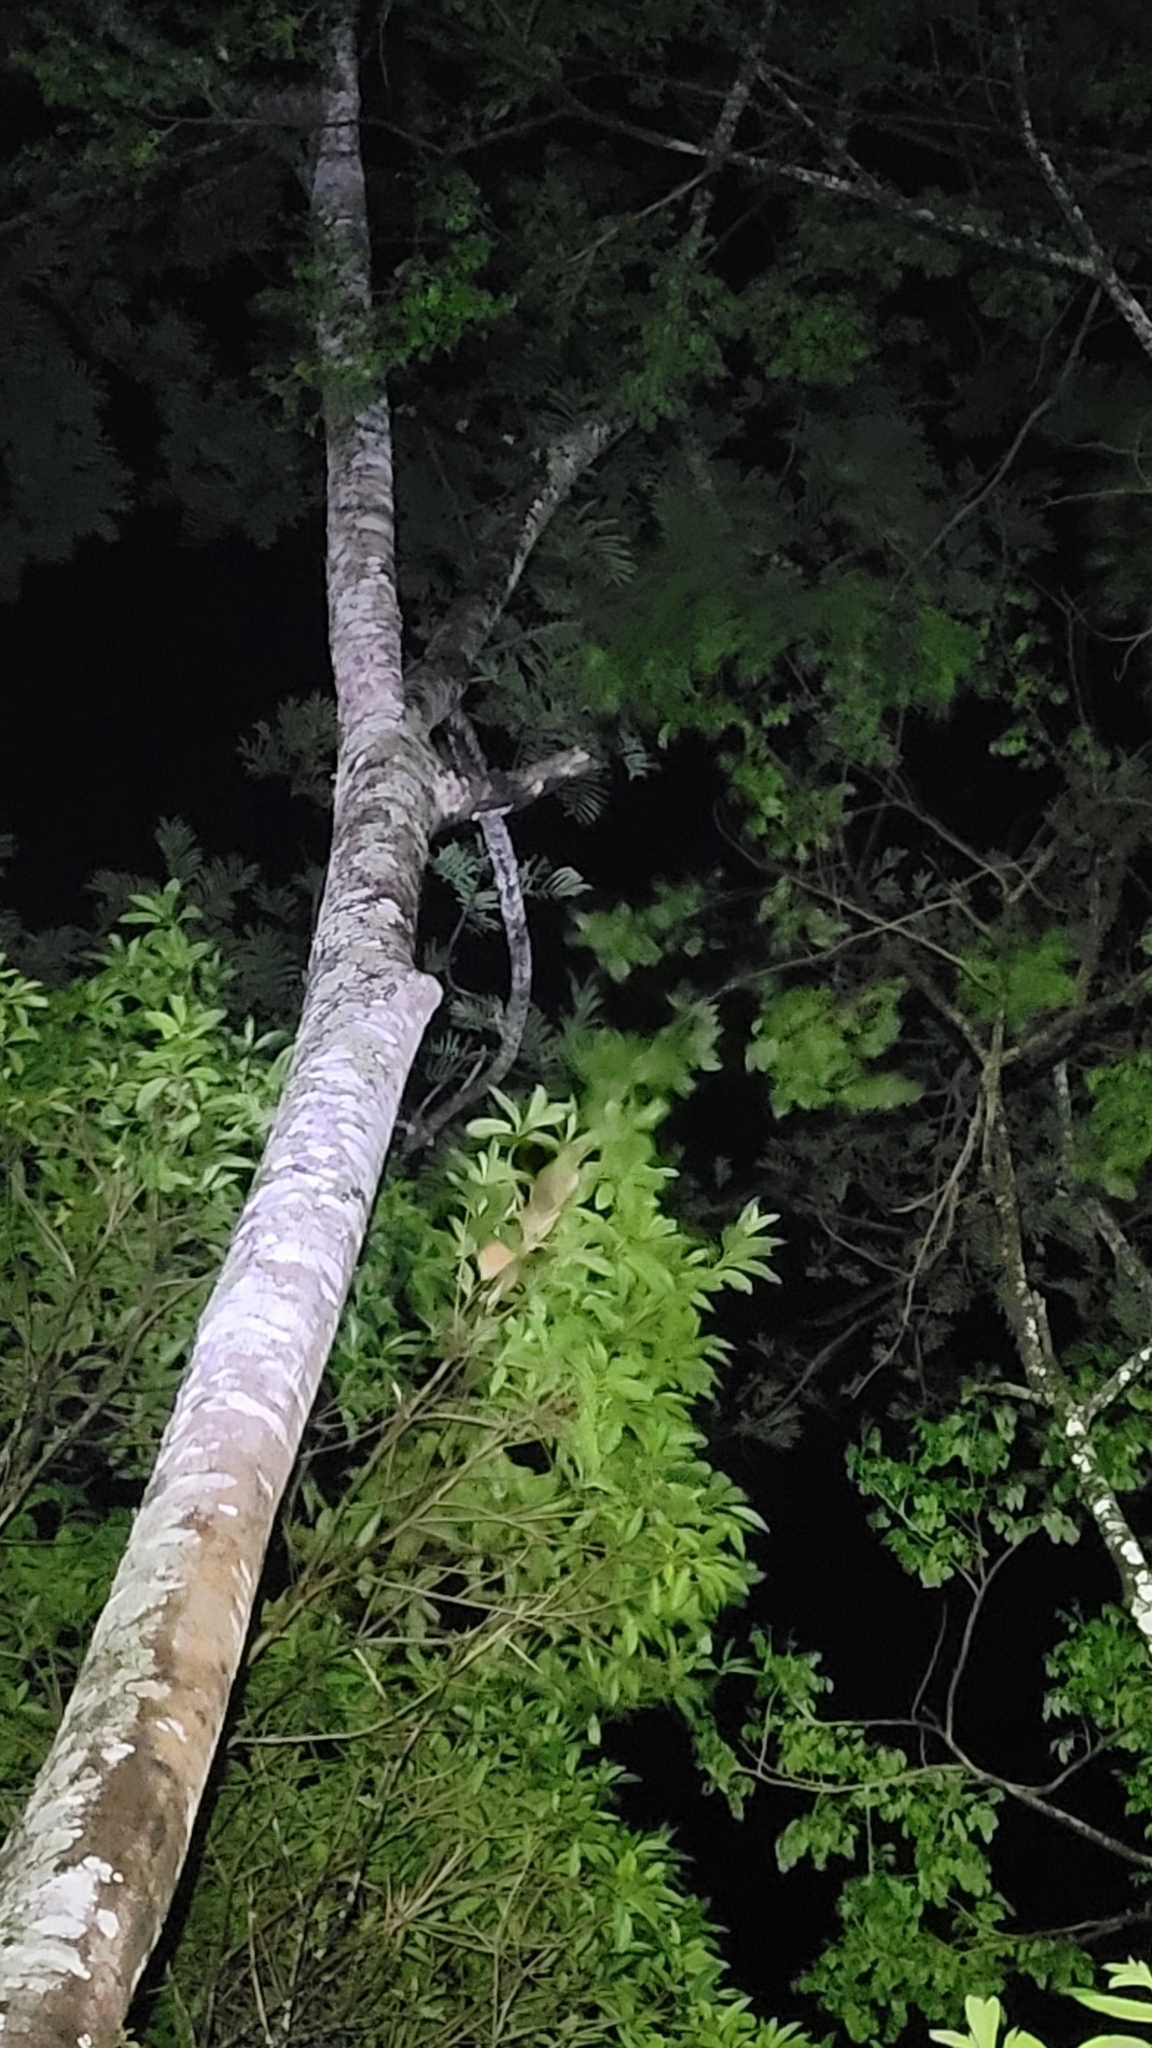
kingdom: Animalia
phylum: Chordata
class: Mammalia
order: Carnivora
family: Procyonidae
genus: Potos
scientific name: Potos flavus
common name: Kinkajou
